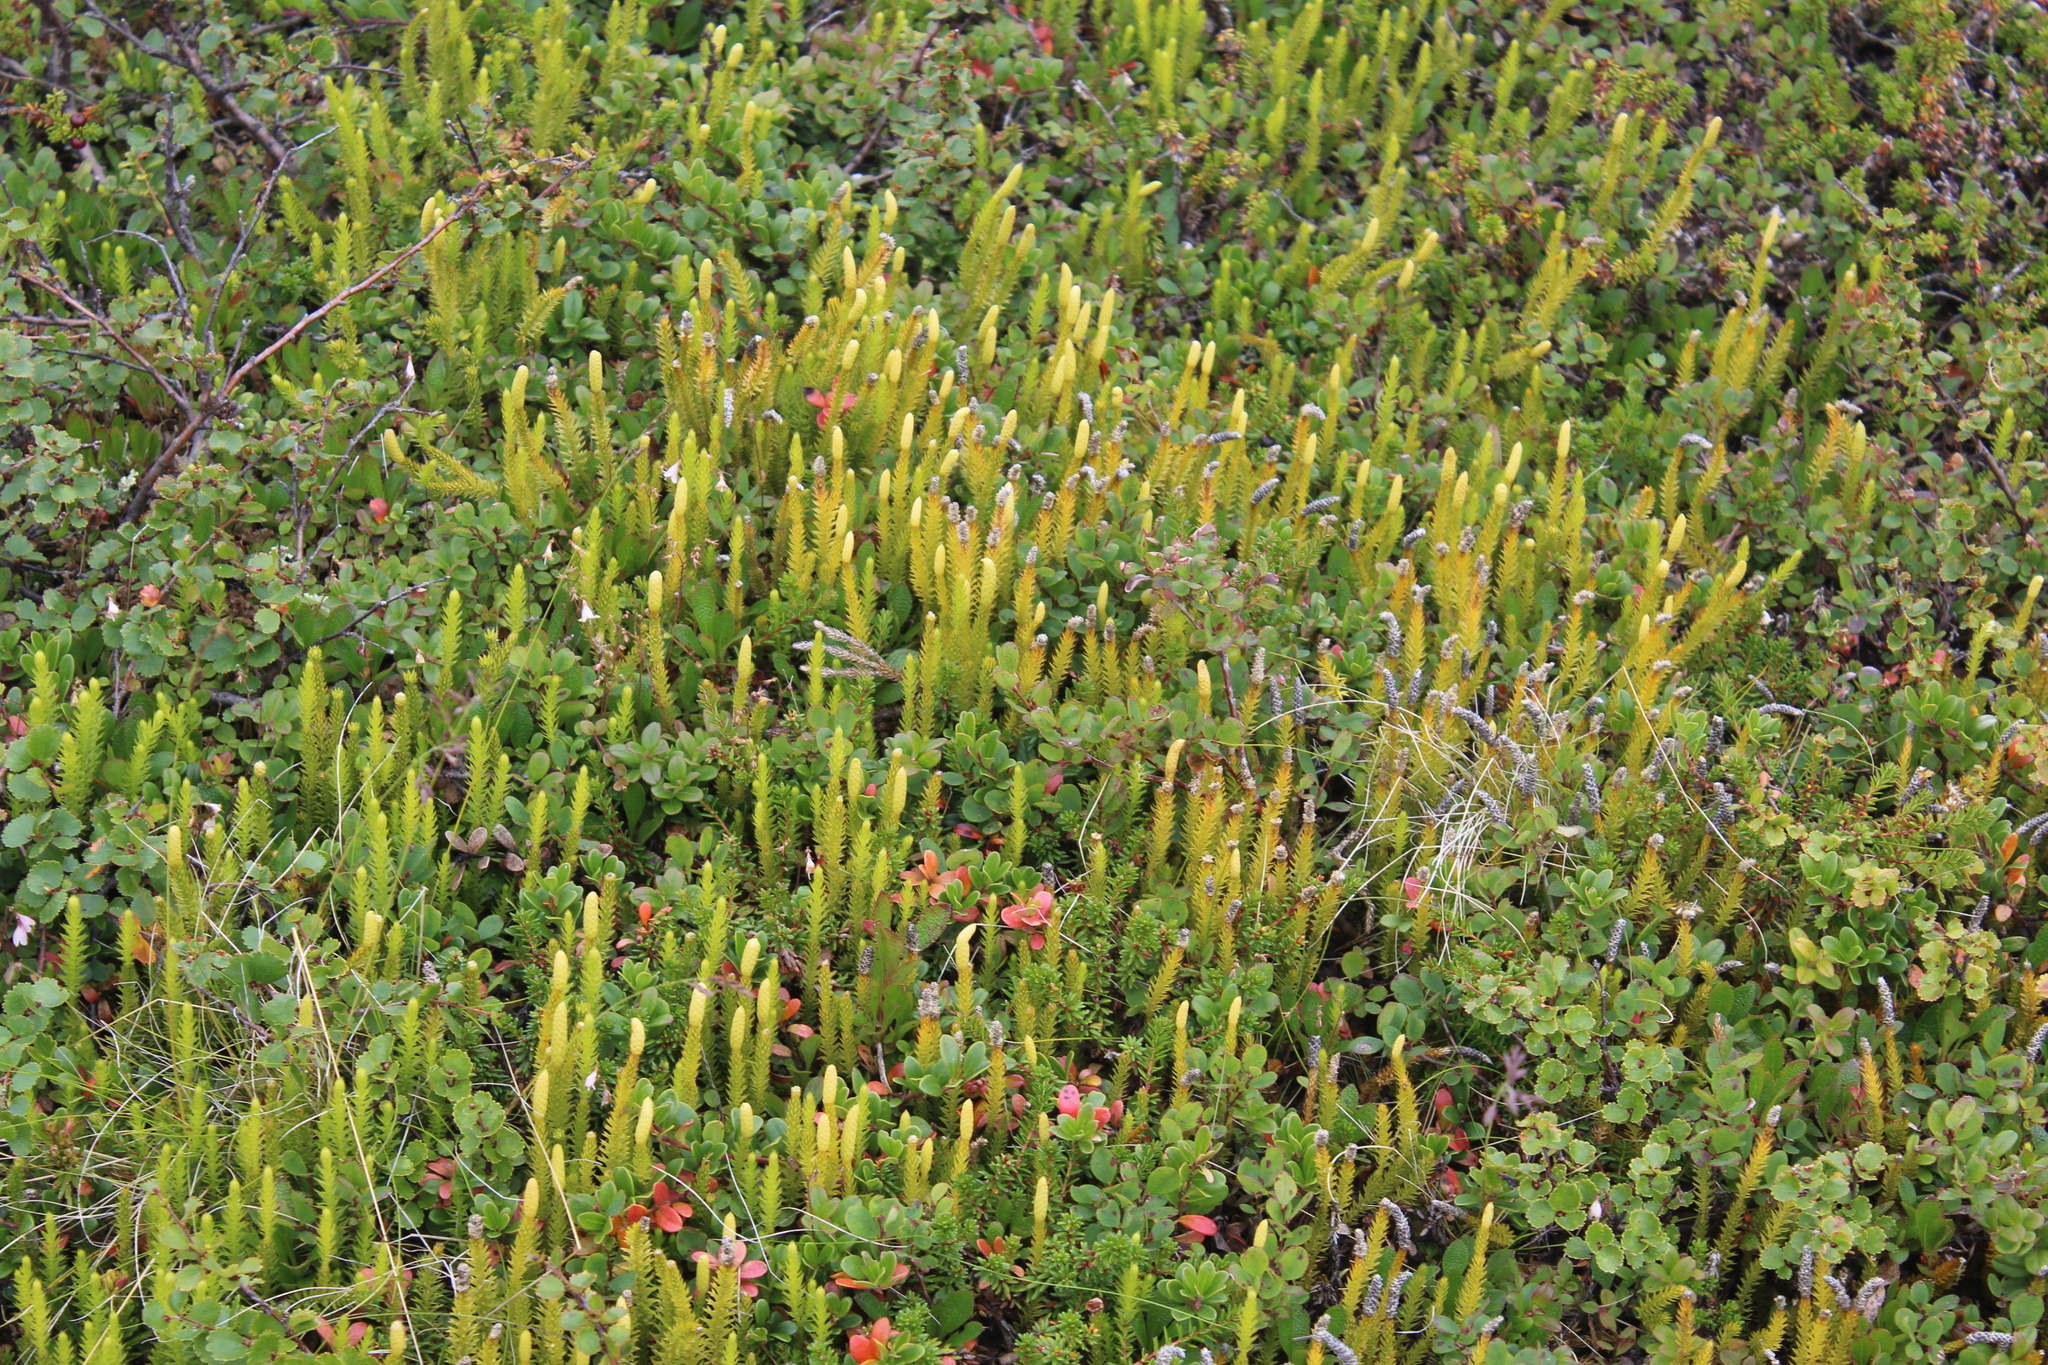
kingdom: Plantae
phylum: Tracheophyta
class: Lycopodiopsida
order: Lycopodiales
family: Lycopodiaceae
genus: Lycopodium
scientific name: Lycopodium lagopus
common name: One-cone clubmoss
